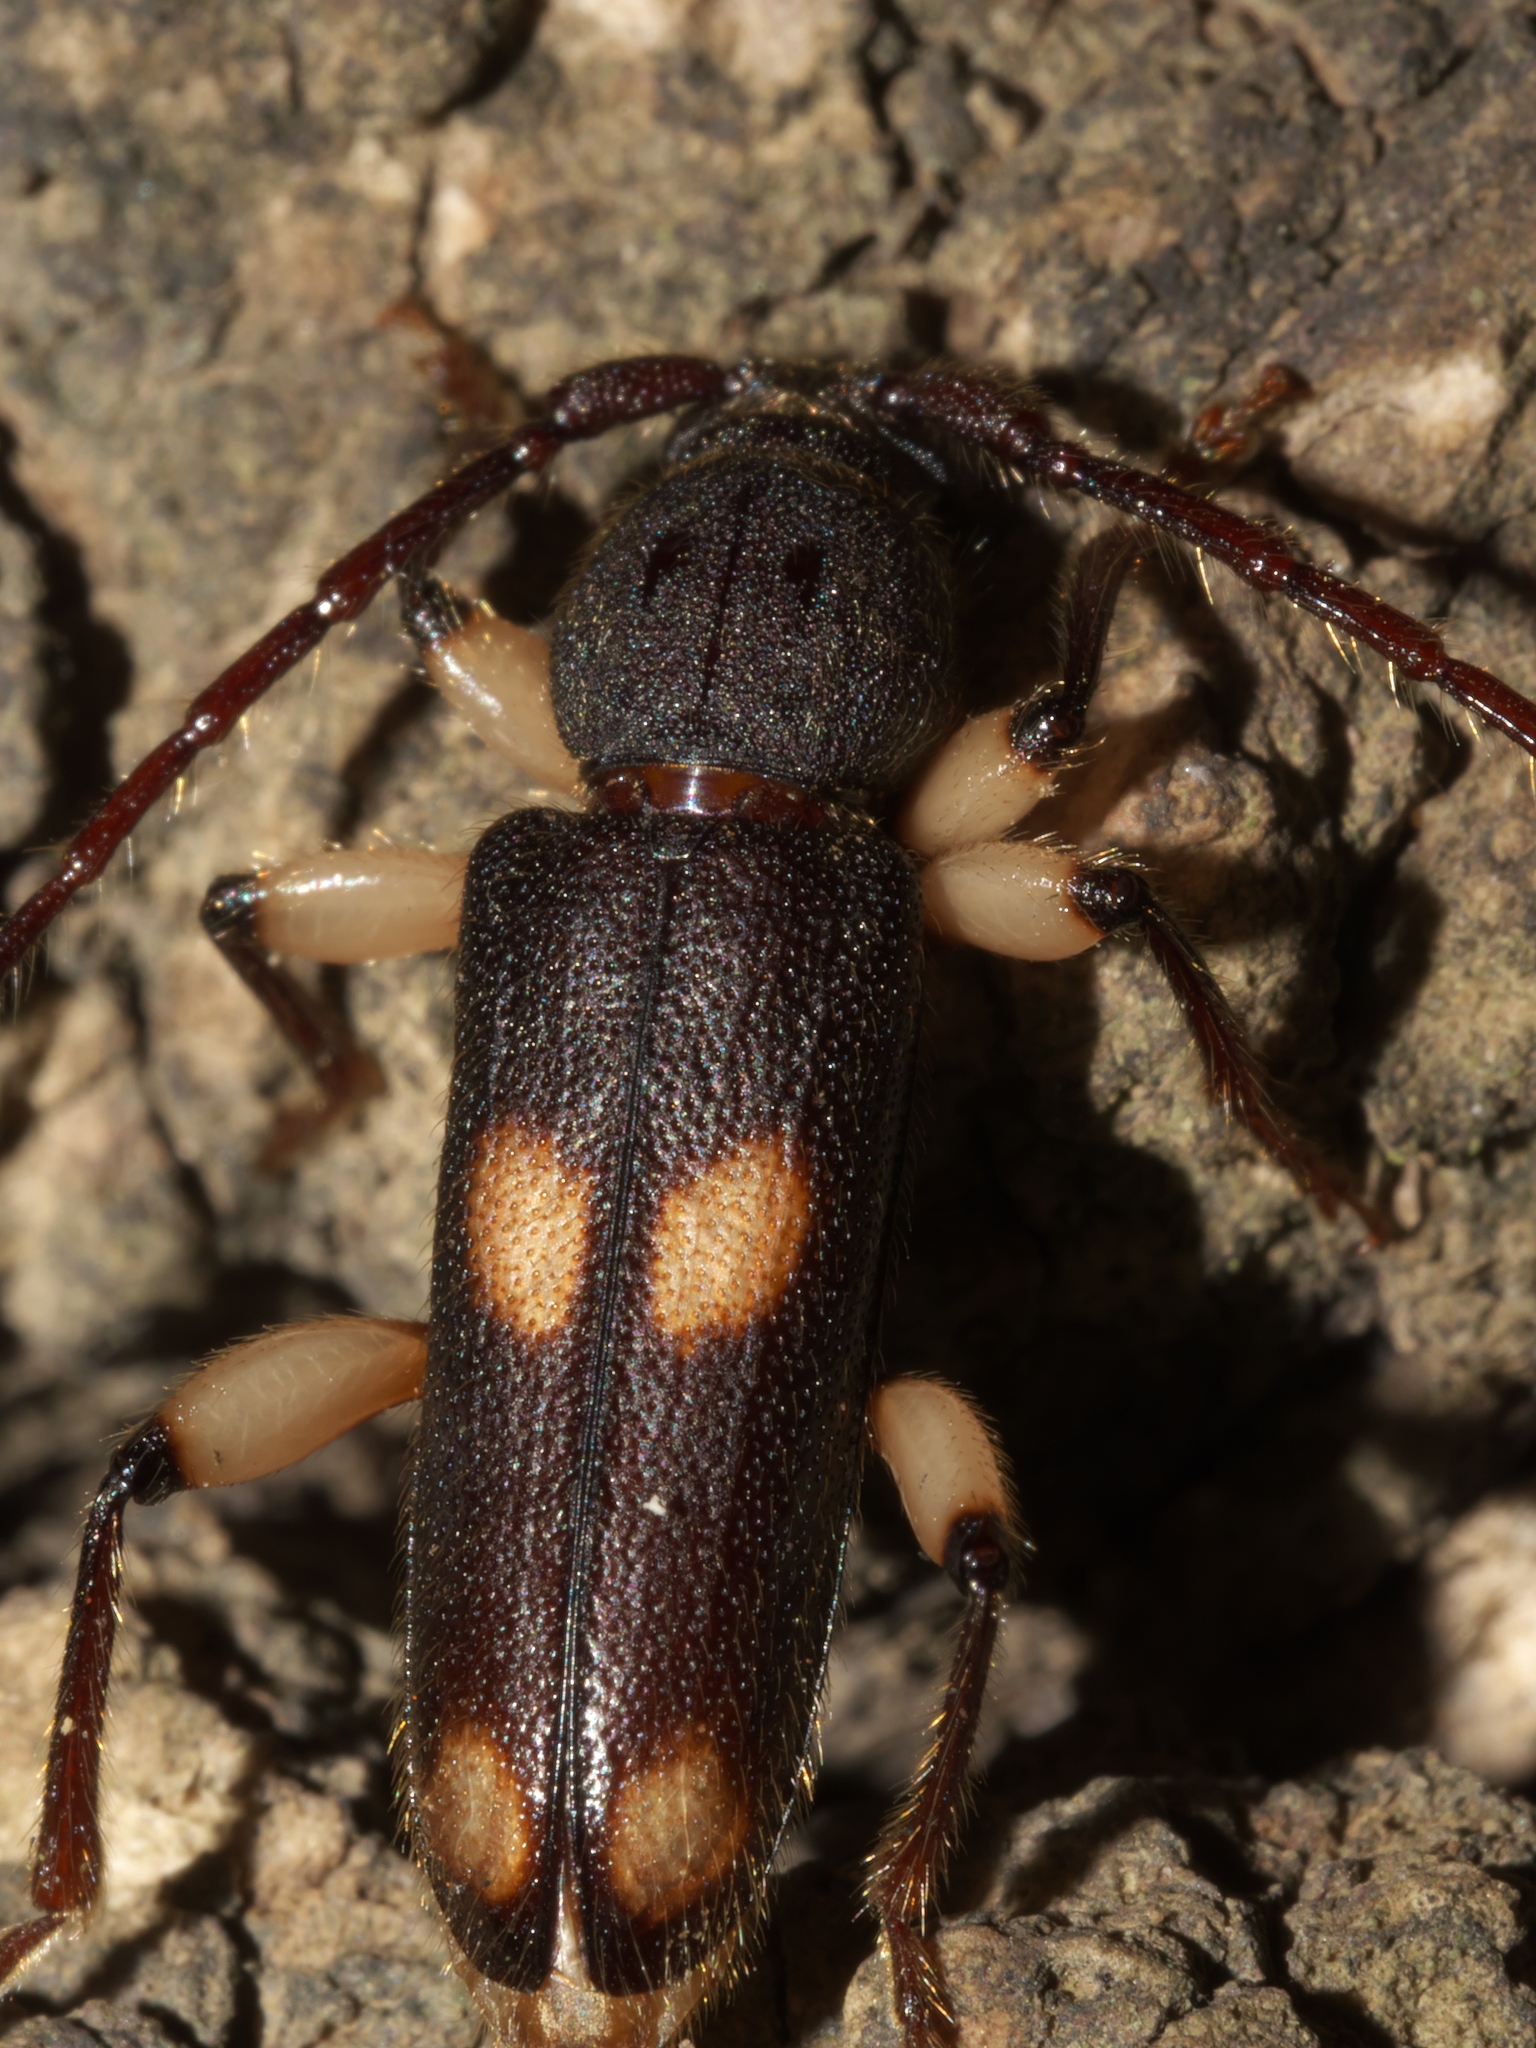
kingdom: Animalia
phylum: Arthropoda
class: Insecta
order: Coleoptera
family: Cerambycidae
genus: Tylonotus
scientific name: Tylonotus bimaculatus
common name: Ash and privet borer
